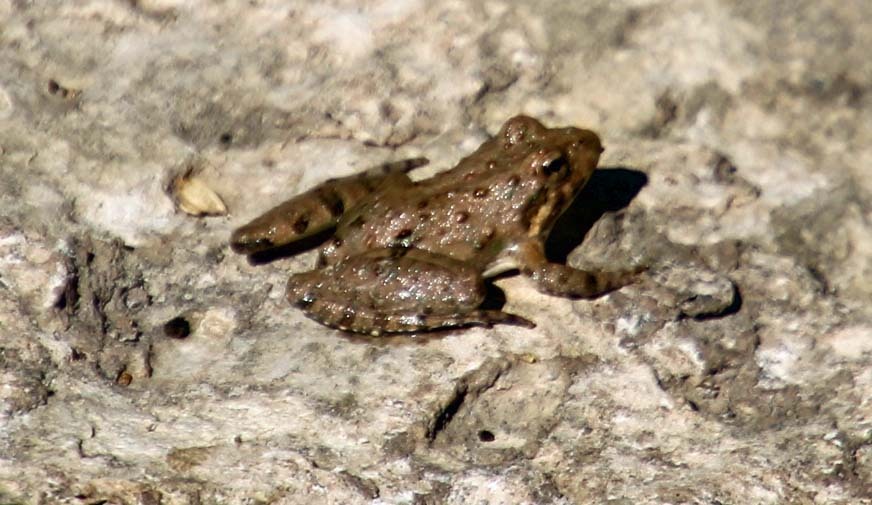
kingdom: Animalia
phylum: Chordata
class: Amphibia
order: Anura
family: Hylidae
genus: Acris
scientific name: Acris blanchardi
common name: Blanchard's cricket frog
